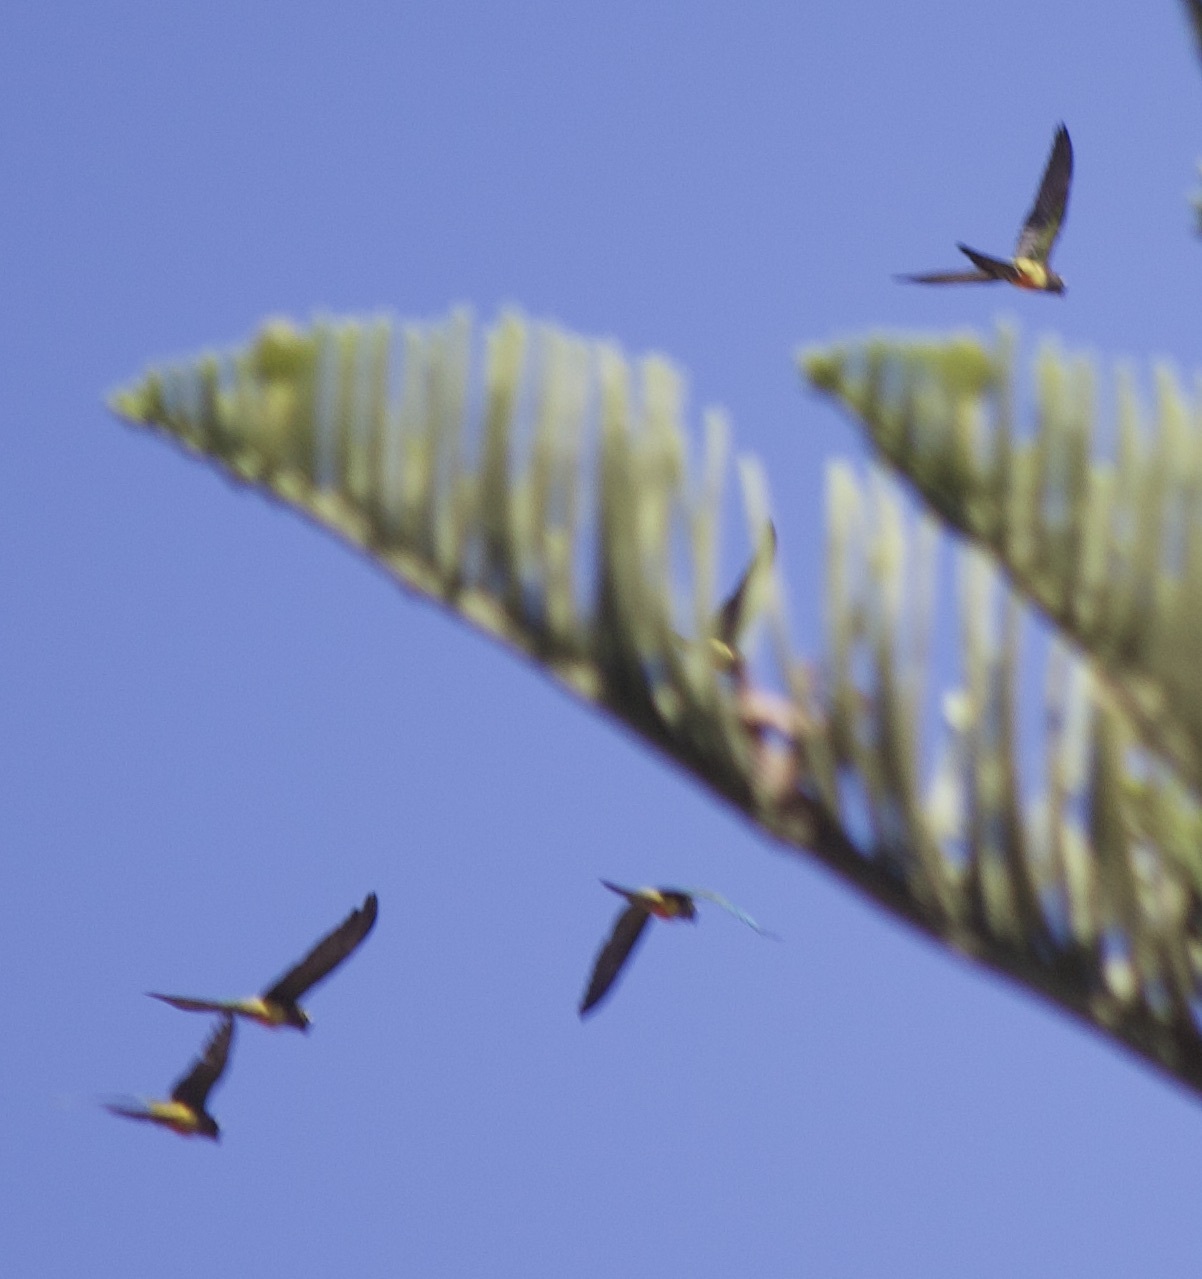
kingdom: Animalia
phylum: Chordata
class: Aves
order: Psittaciformes
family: Psittacidae
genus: Cyanoliseus
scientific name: Cyanoliseus patagonus
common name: Burrowing parrot
